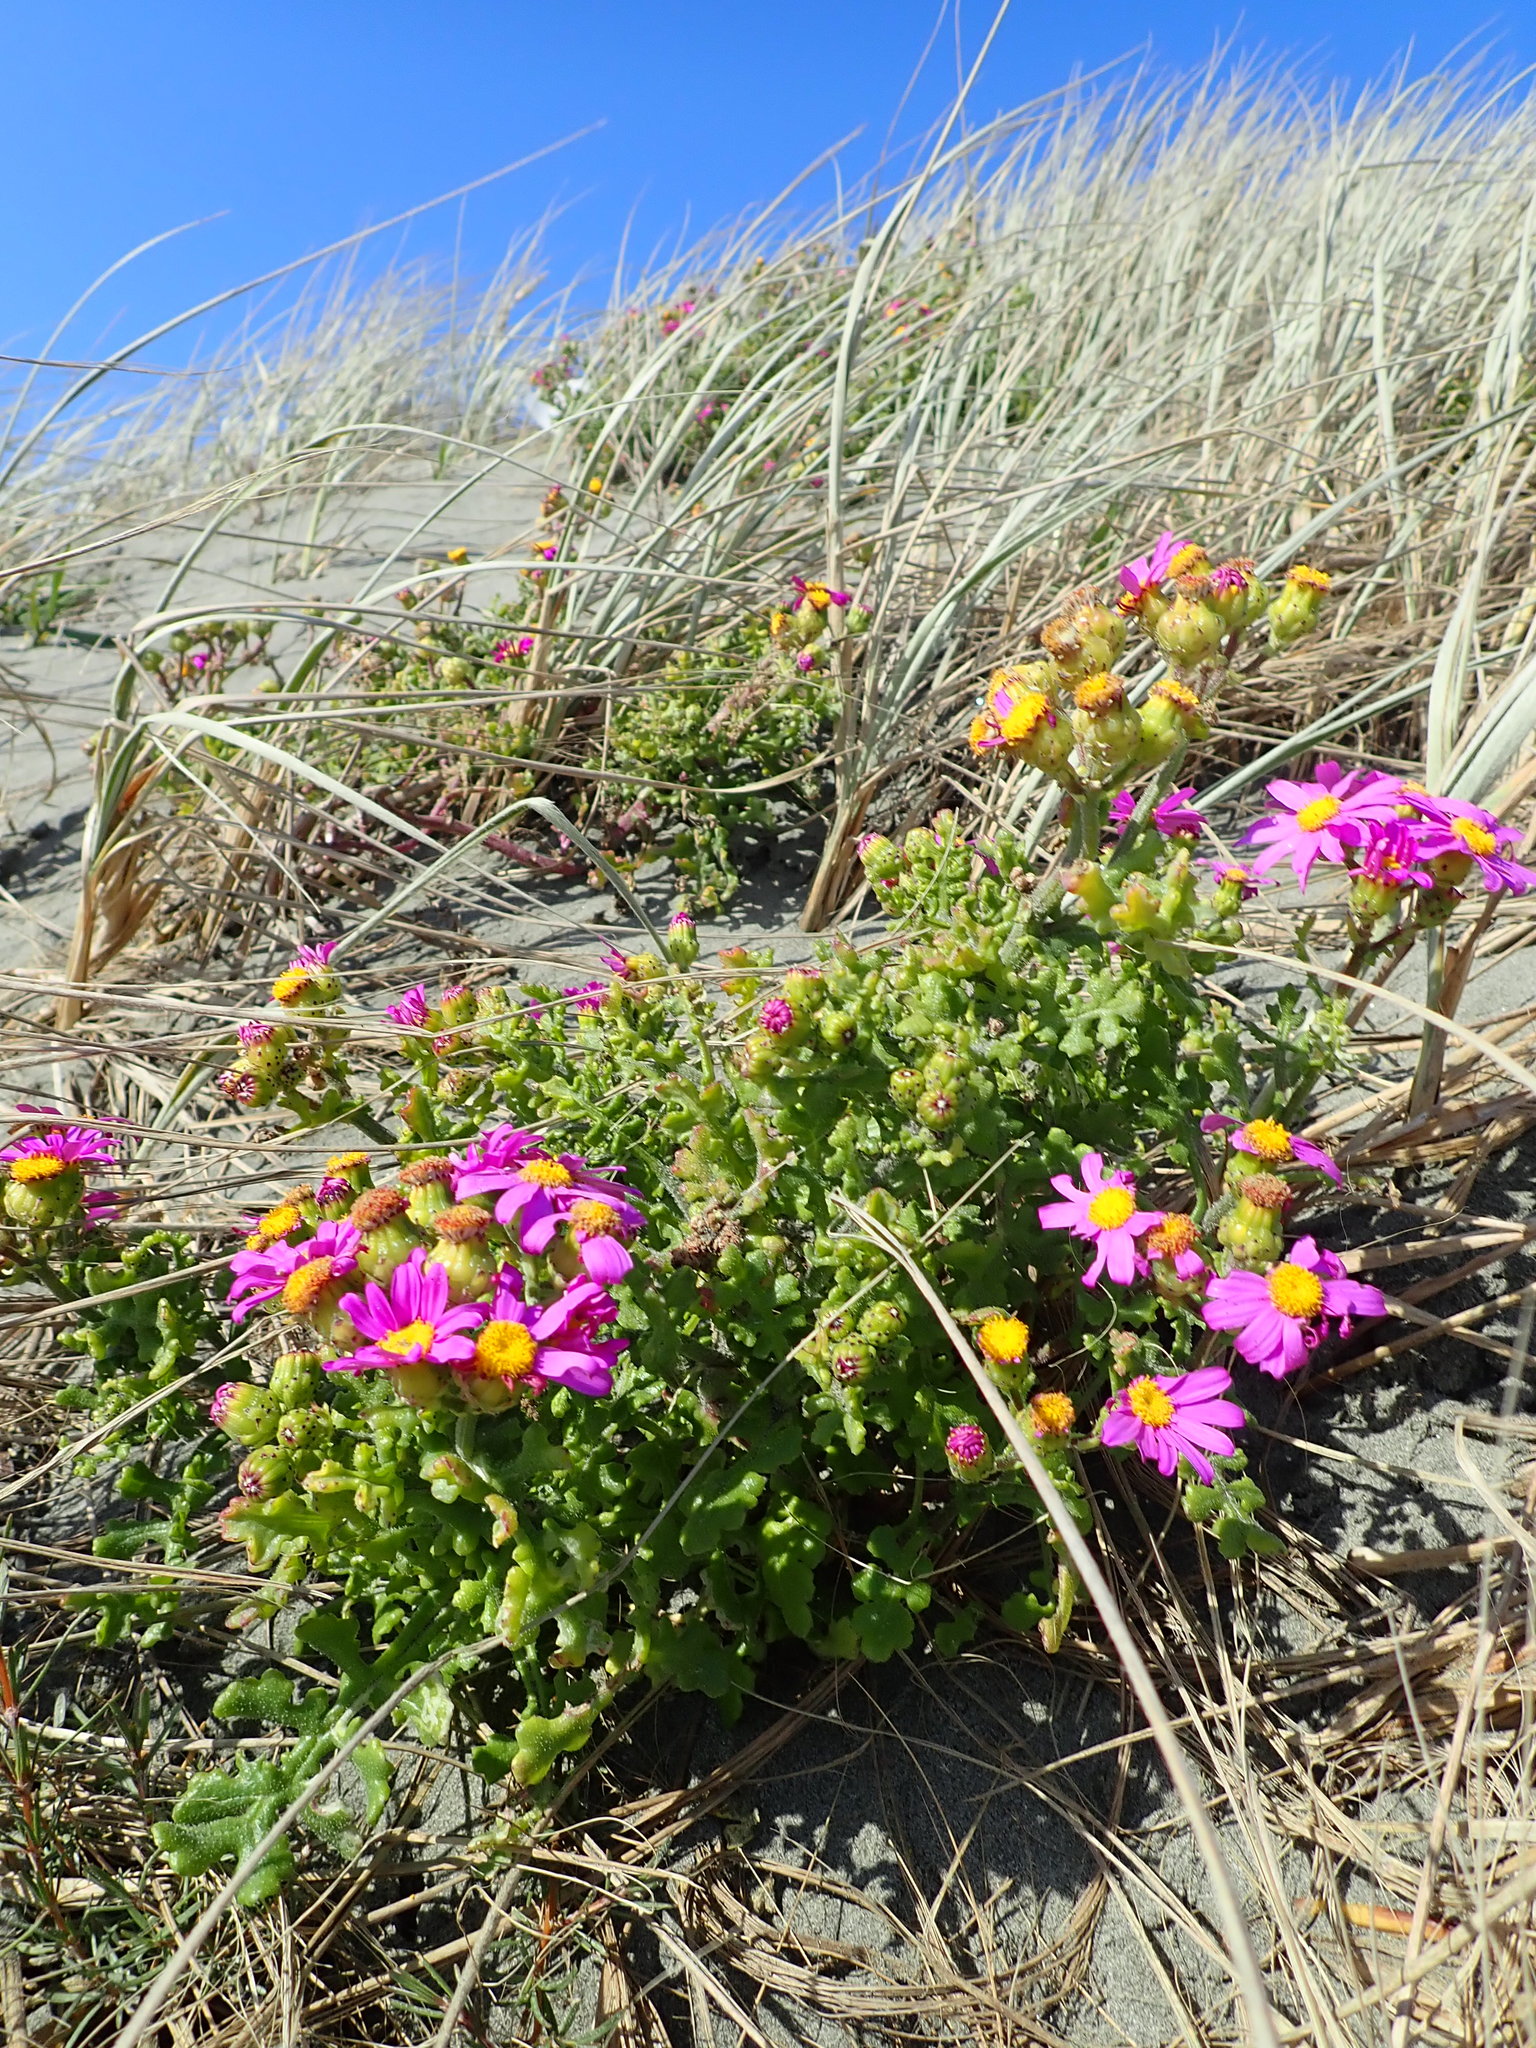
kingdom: Plantae
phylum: Tracheophyta
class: Magnoliopsida
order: Asterales
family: Asteraceae
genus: Senecio
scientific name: Senecio elegans
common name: Purple groundsel
